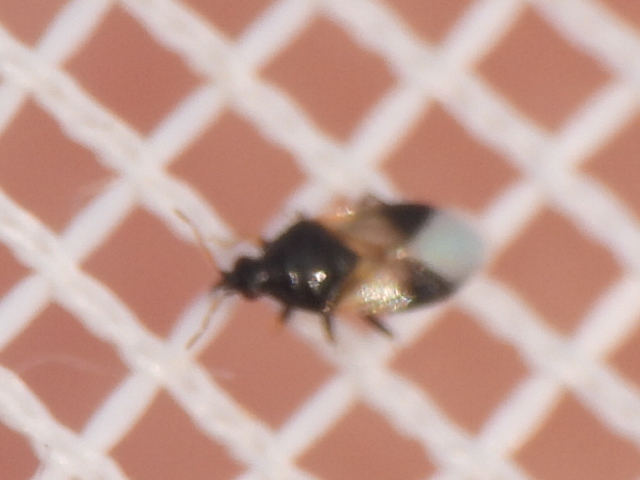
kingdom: Animalia
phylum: Arthropoda
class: Insecta
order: Hemiptera
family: Anthocoridae
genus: Orius
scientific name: Orius insidiosus
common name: Insidious flower bug
